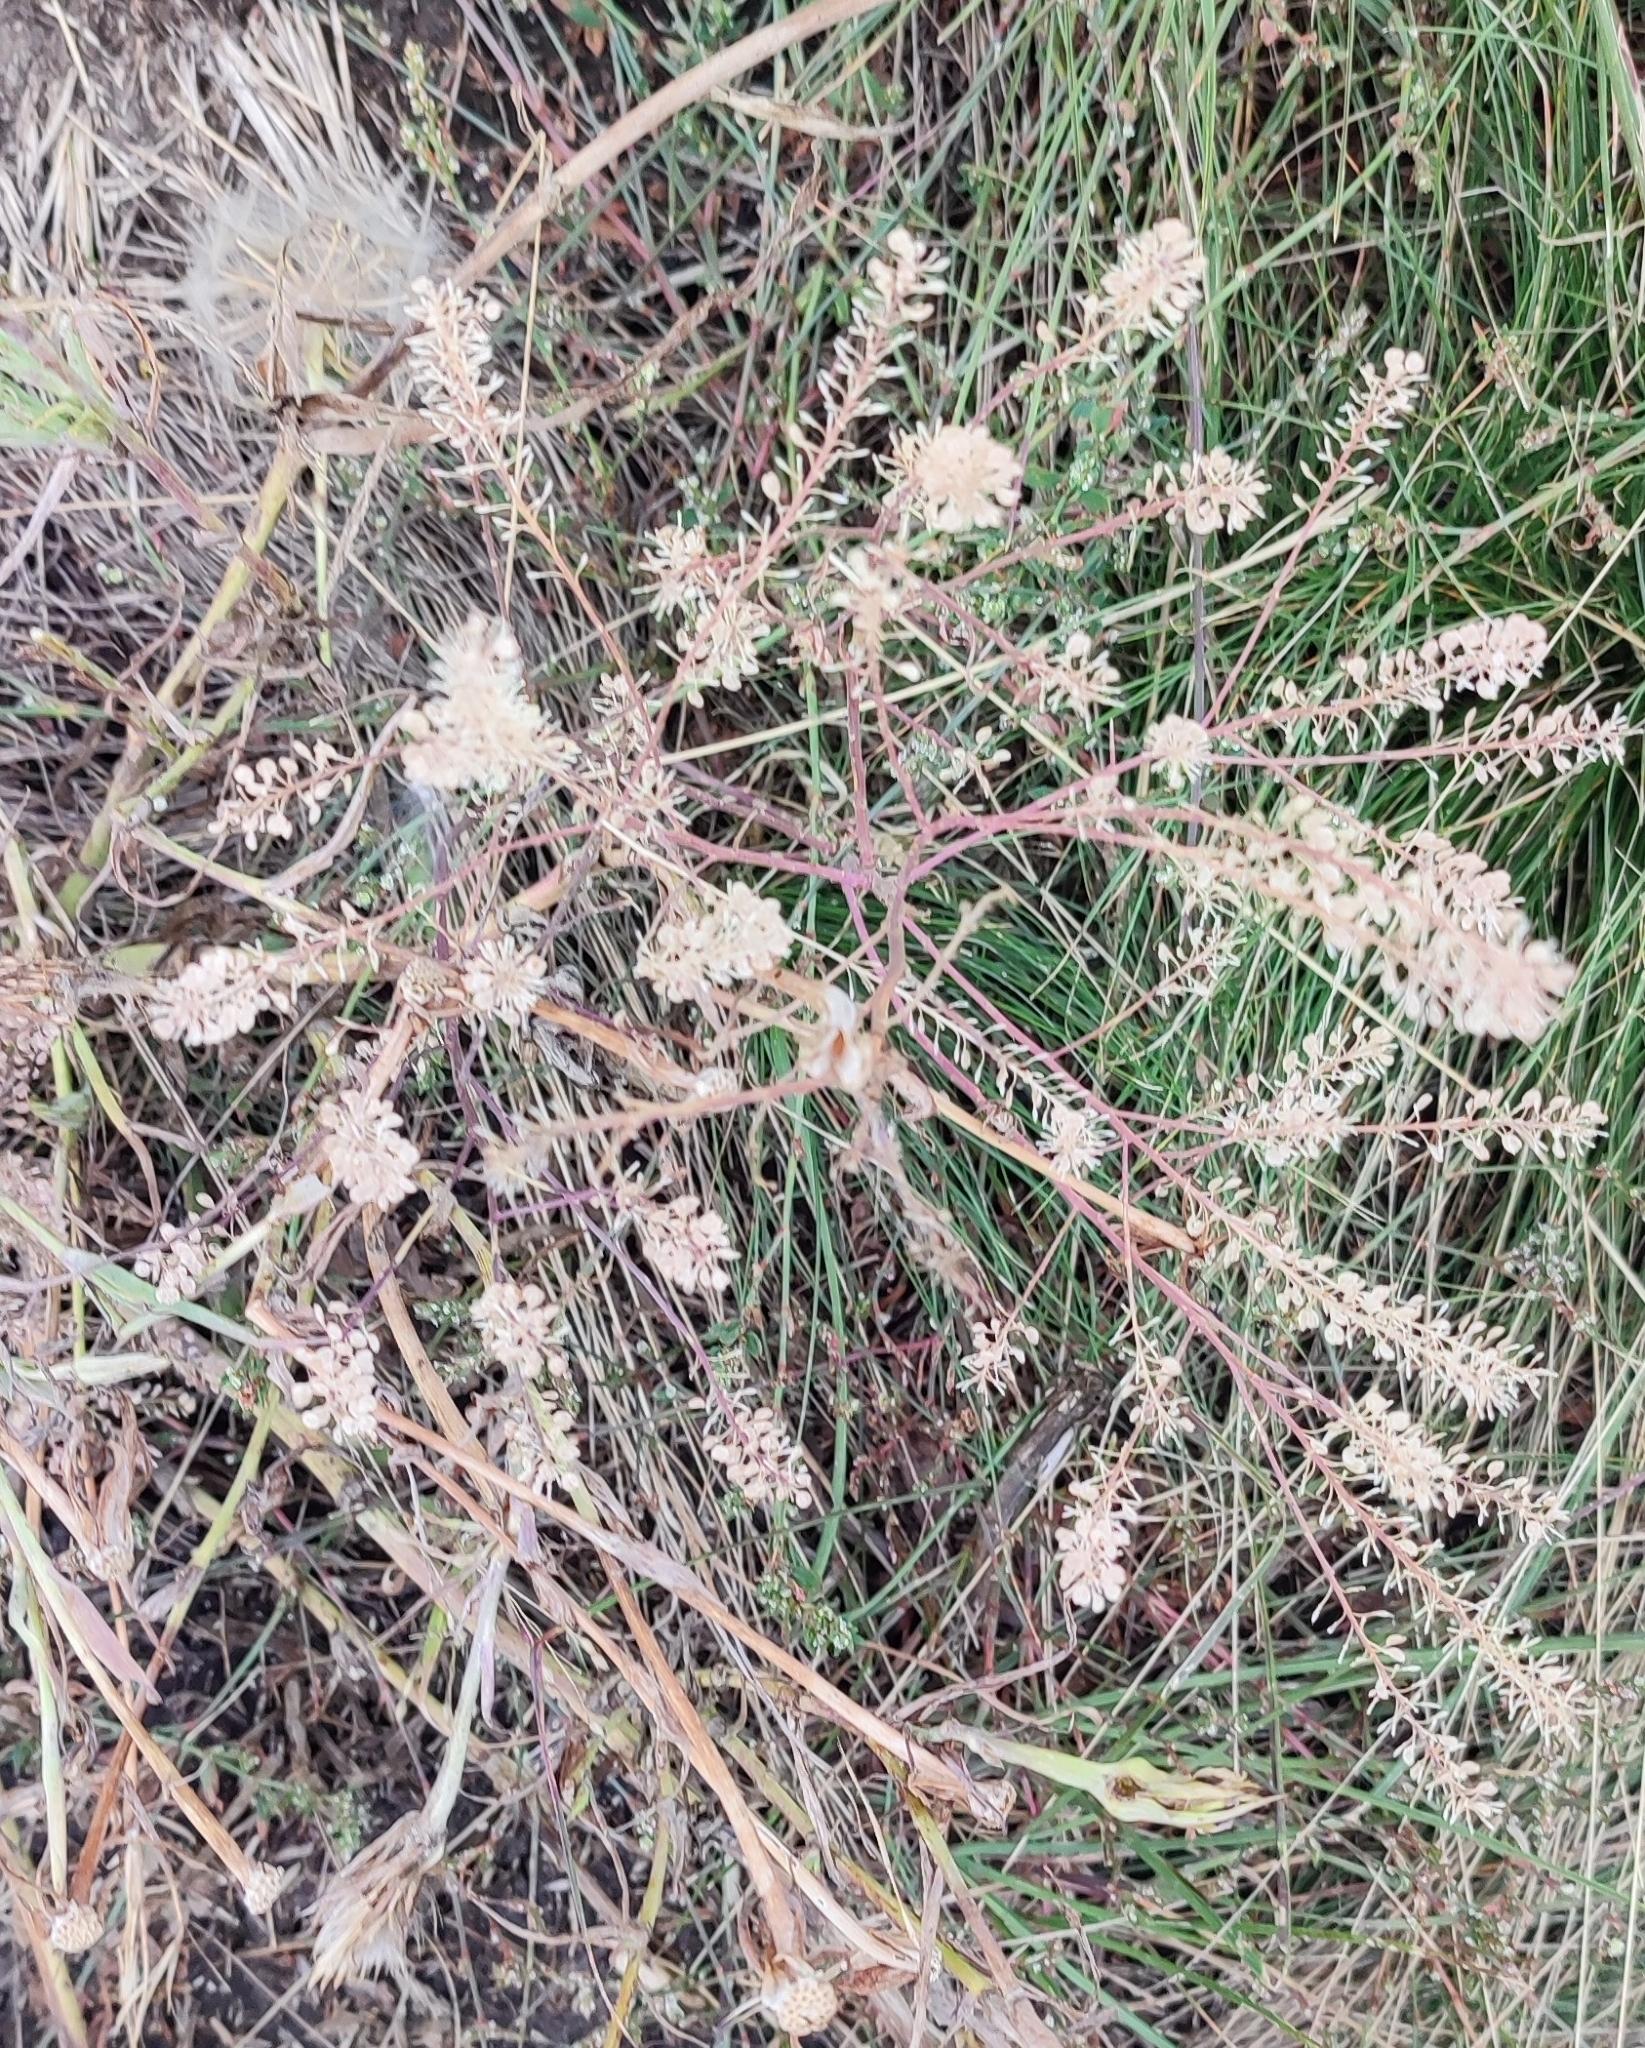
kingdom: Plantae
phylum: Tracheophyta
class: Magnoliopsida
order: Brassicales
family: Brassicaceae
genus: Lepidium
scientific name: Lepidium densiflorum
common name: Miner's pepperwort
